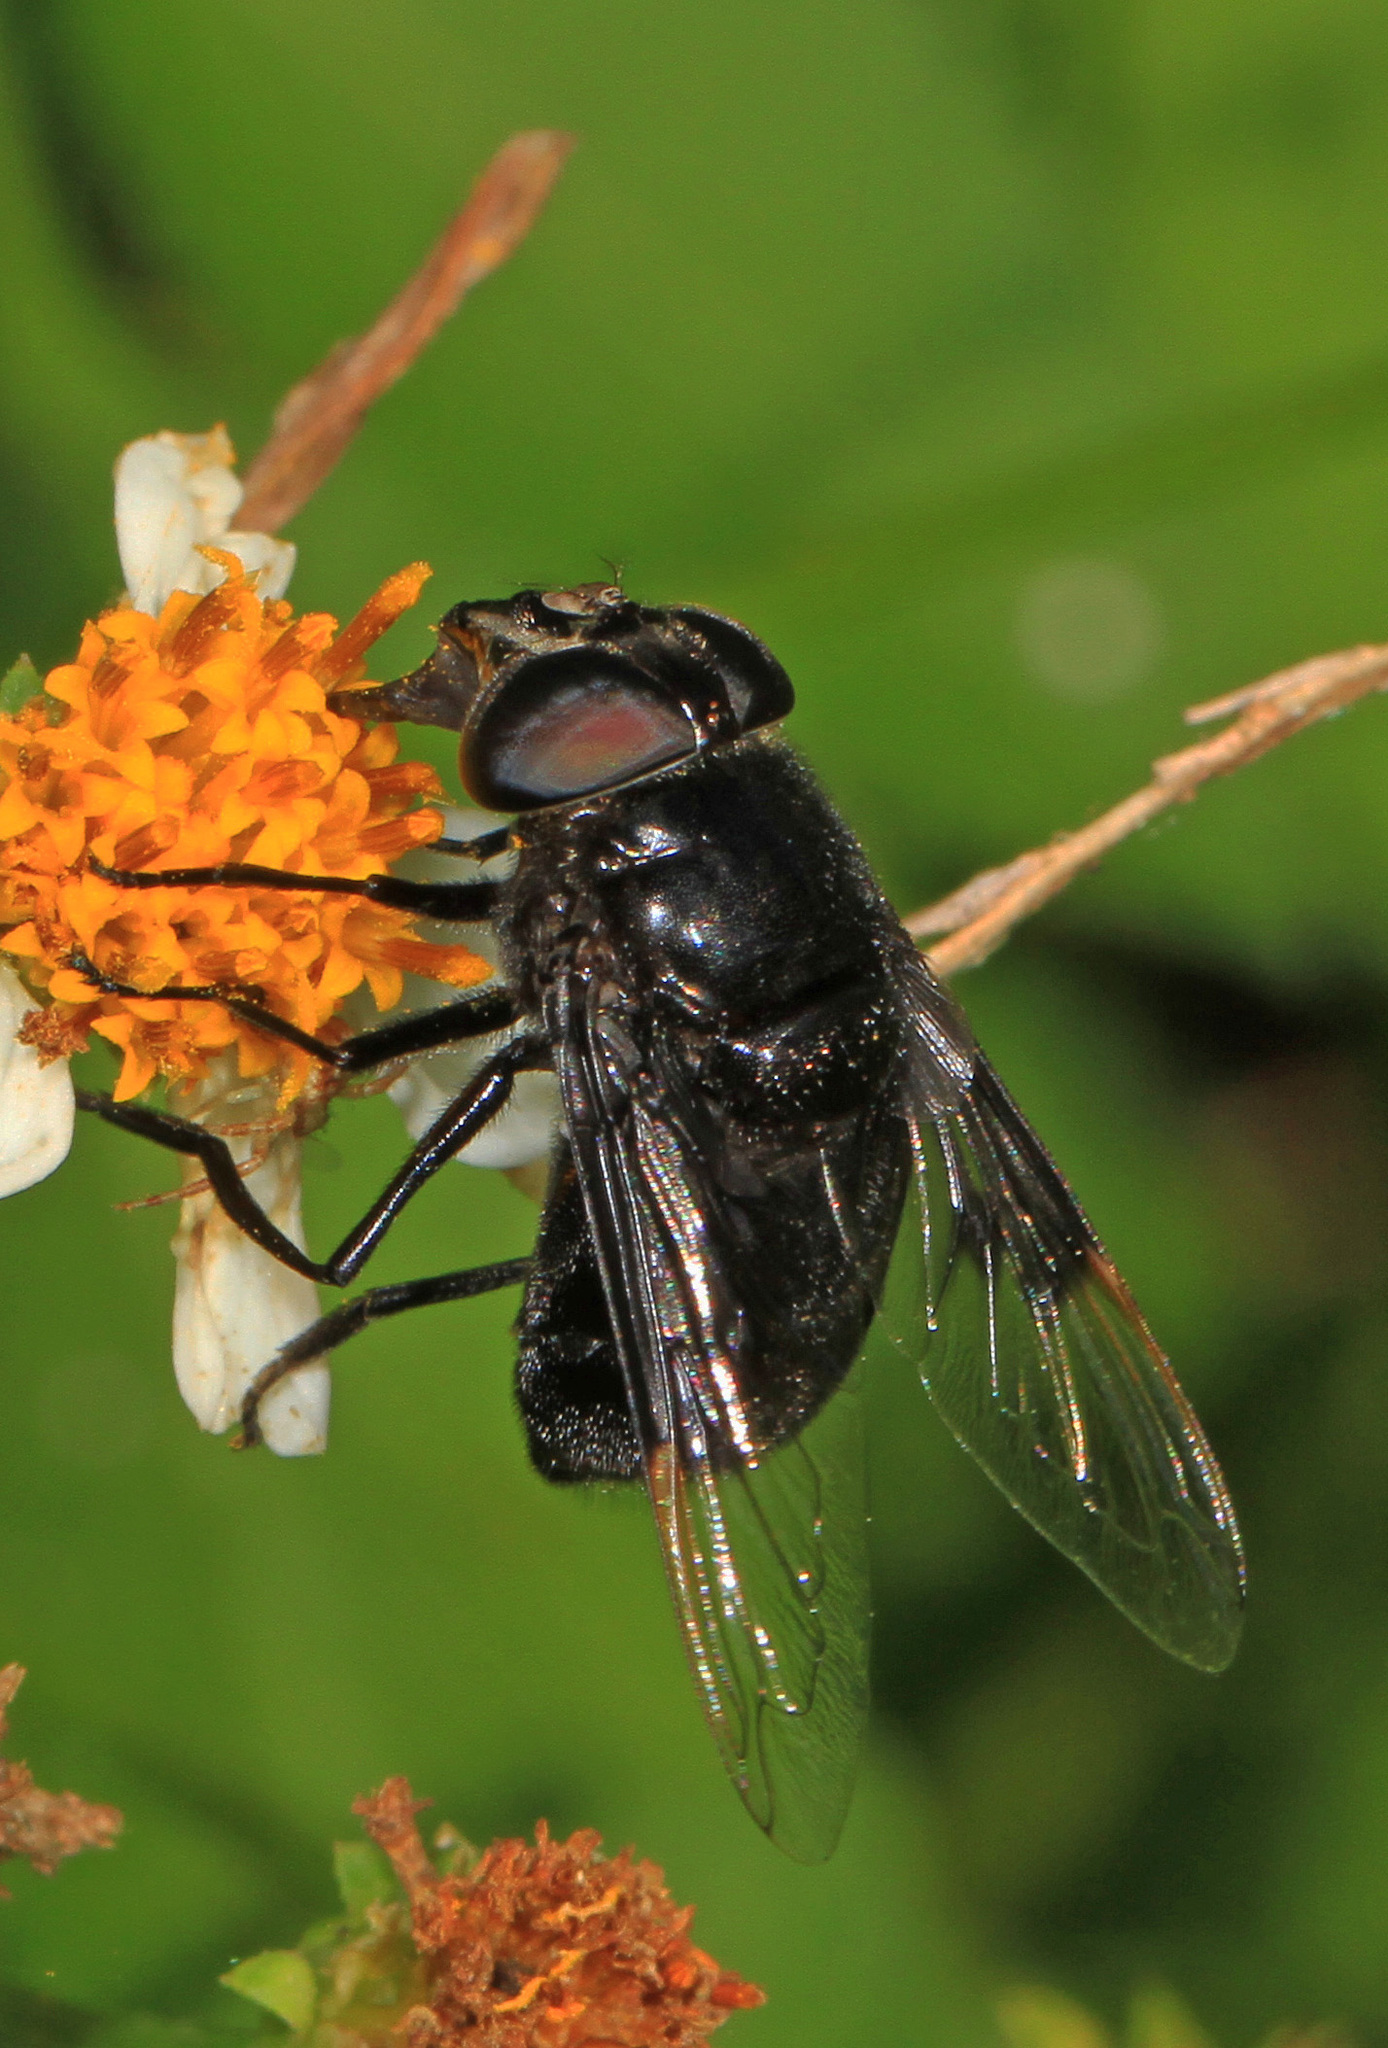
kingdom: Animalia
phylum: Arthropoda
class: Insecta
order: Diptera
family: Syrphidae
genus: Copestylum
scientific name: Copestylum mexicanum
